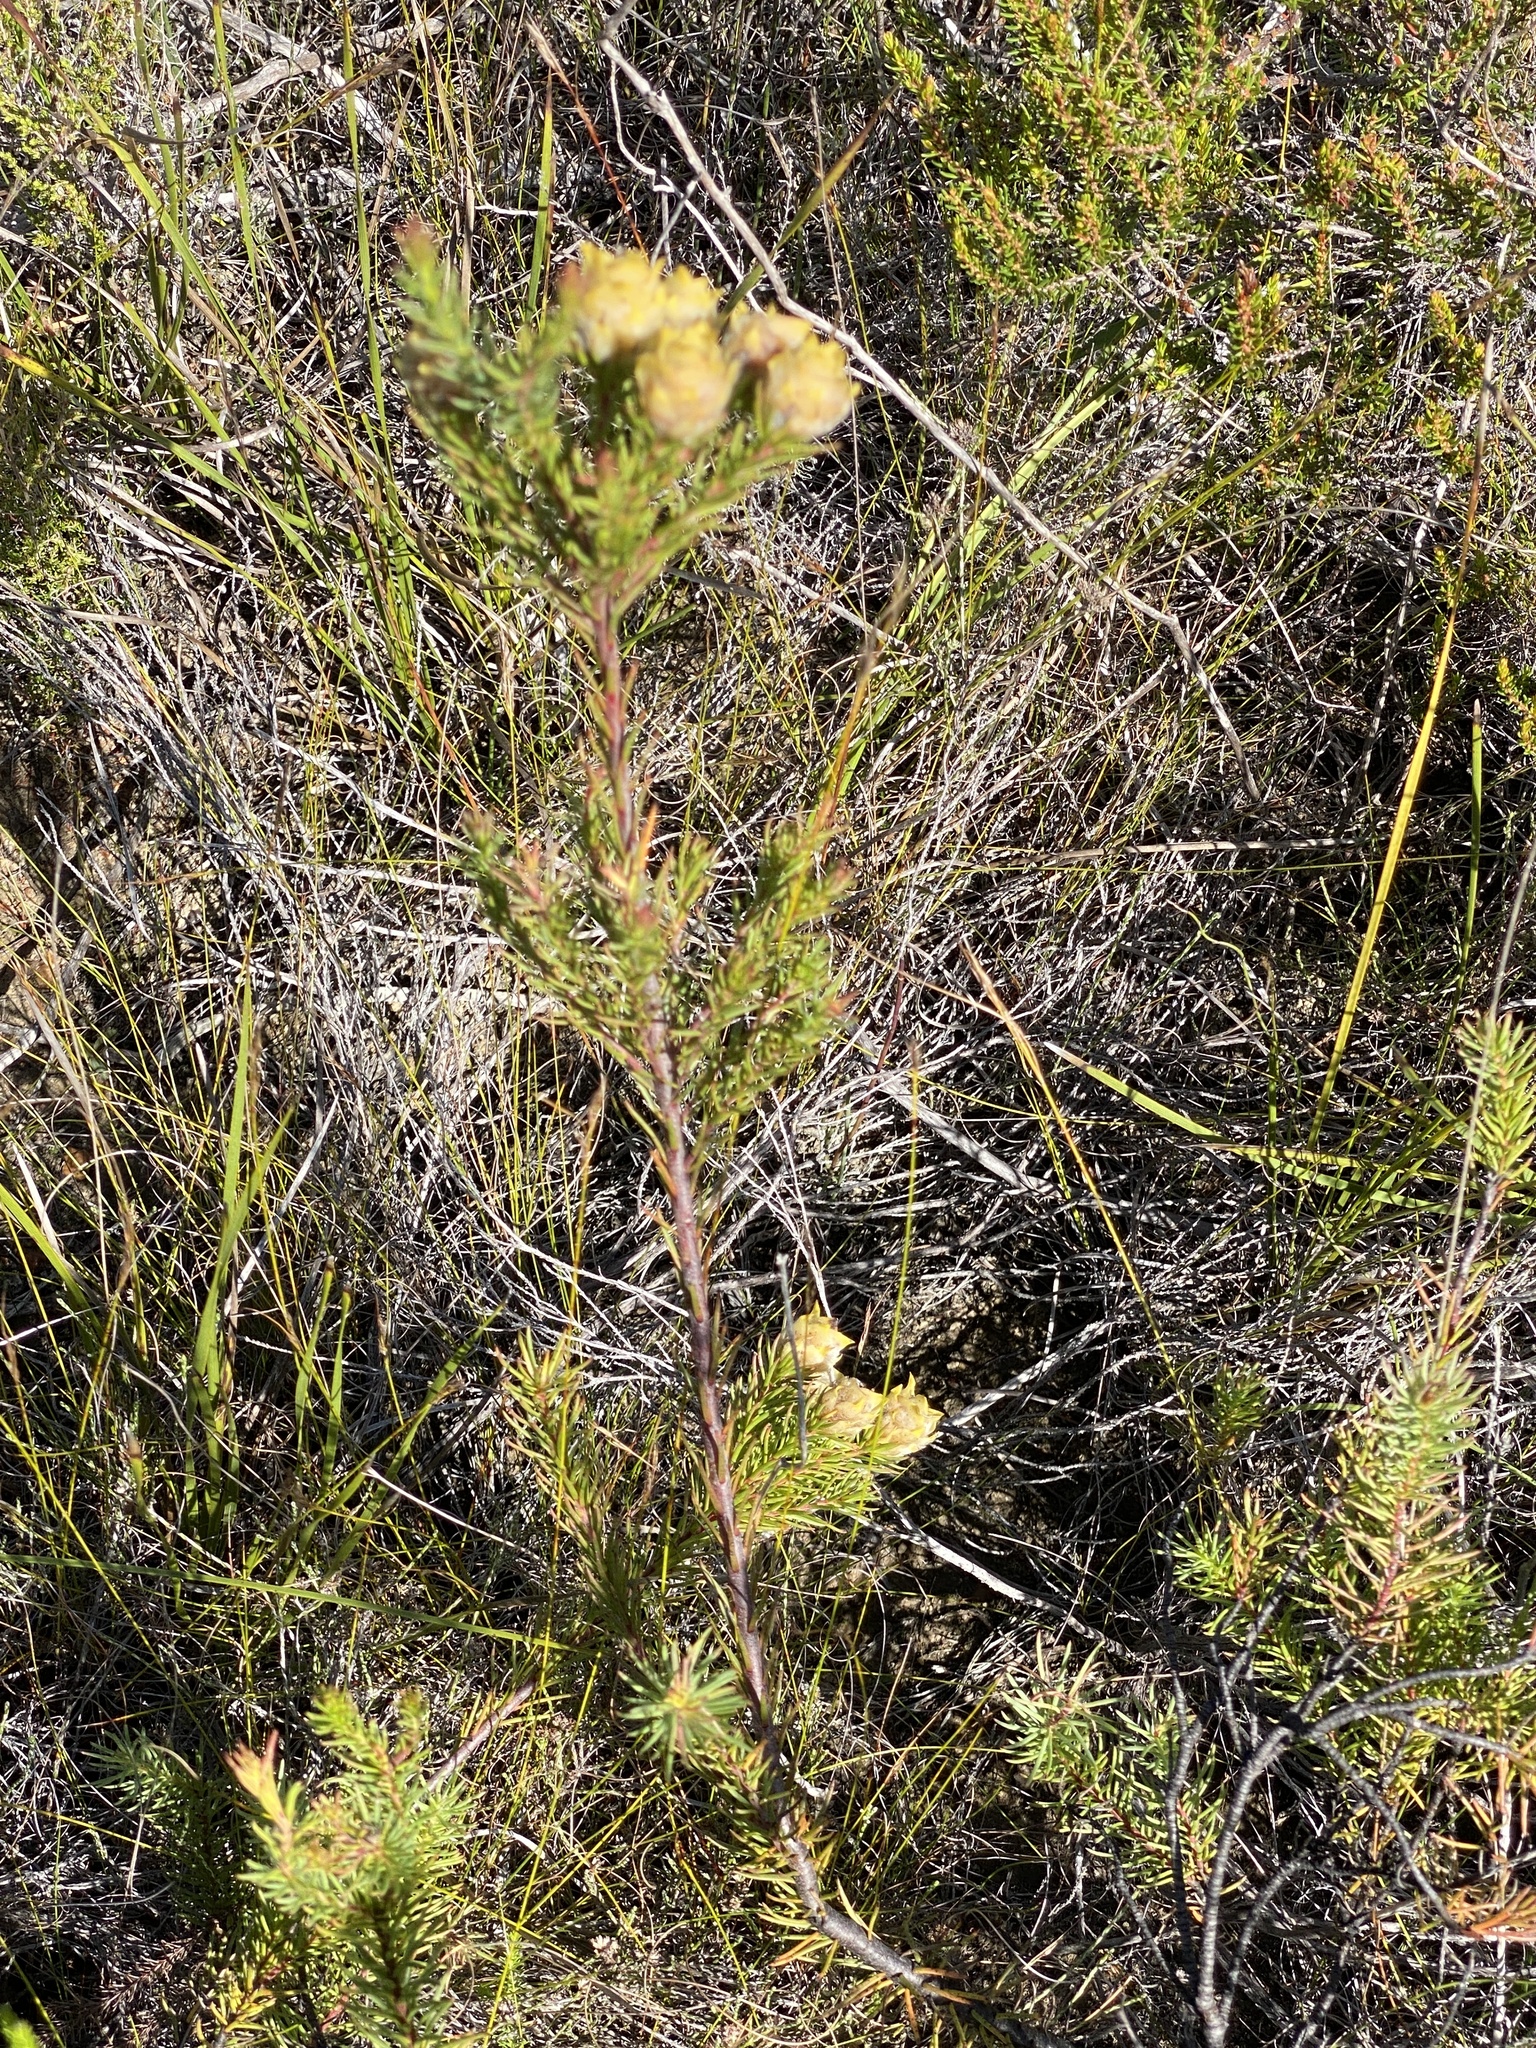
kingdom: Plantae
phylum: Tracheophyta
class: Magnoliopsida
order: Proteales
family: Proteaceae
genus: Leucadendron
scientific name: Leucadendron laxum
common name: Bredasdorp conebush
